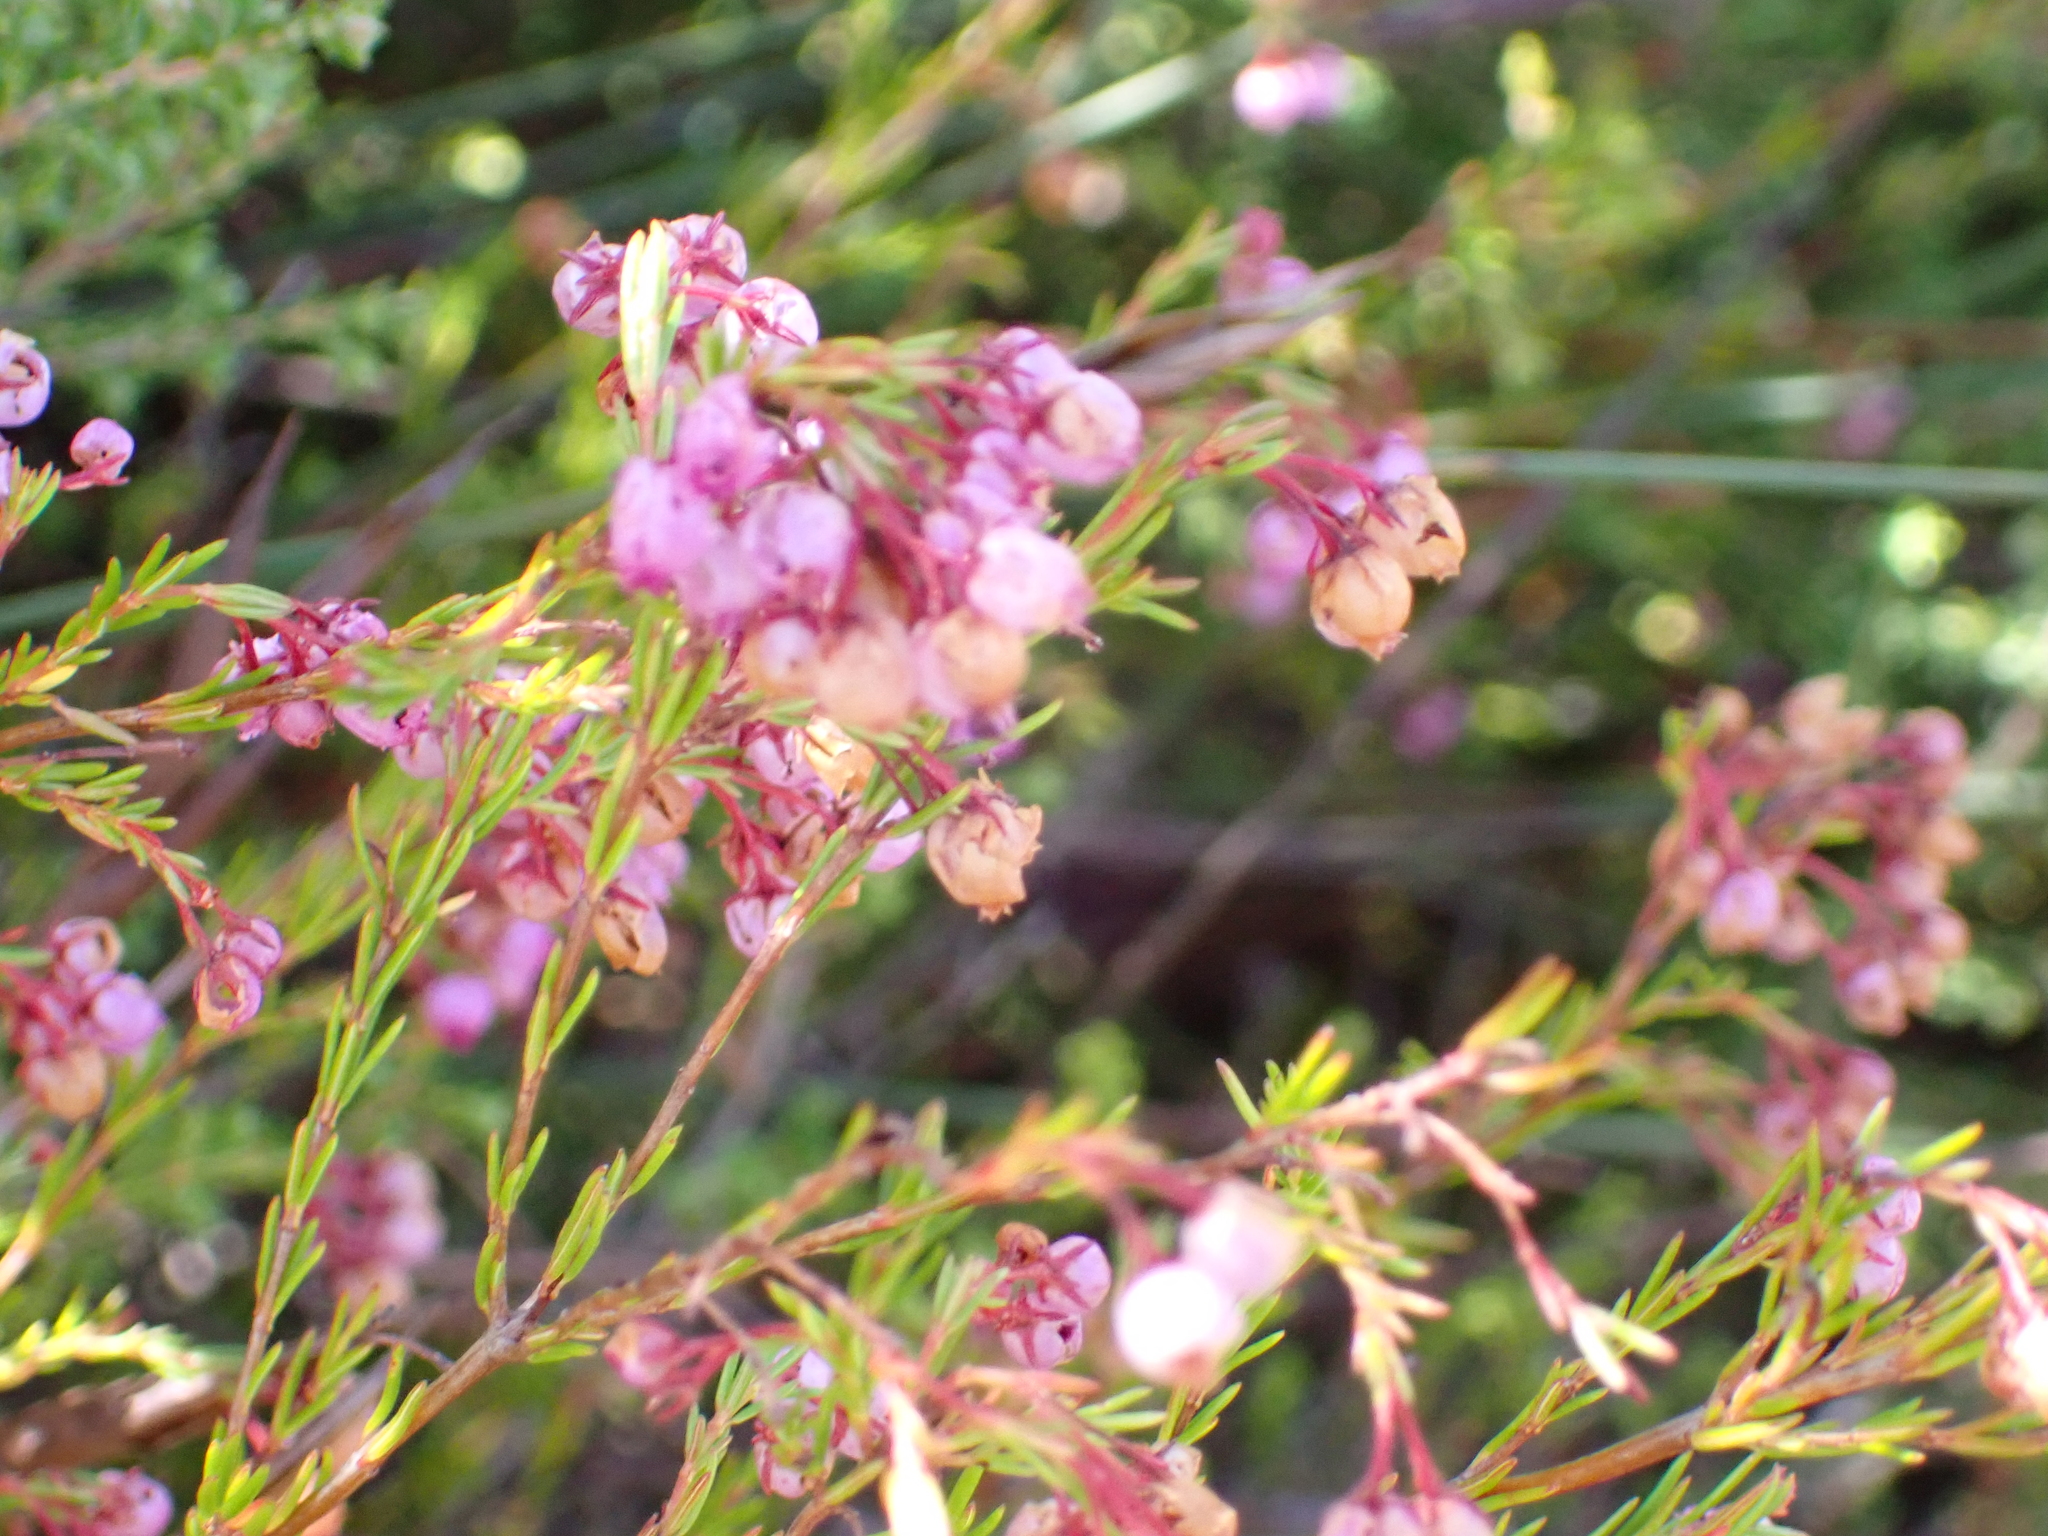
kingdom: Plantae
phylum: Tracheophyta
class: Magnoliopsida
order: Ericales
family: Ericaceae
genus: Erica
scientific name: Erica multumbellifera
